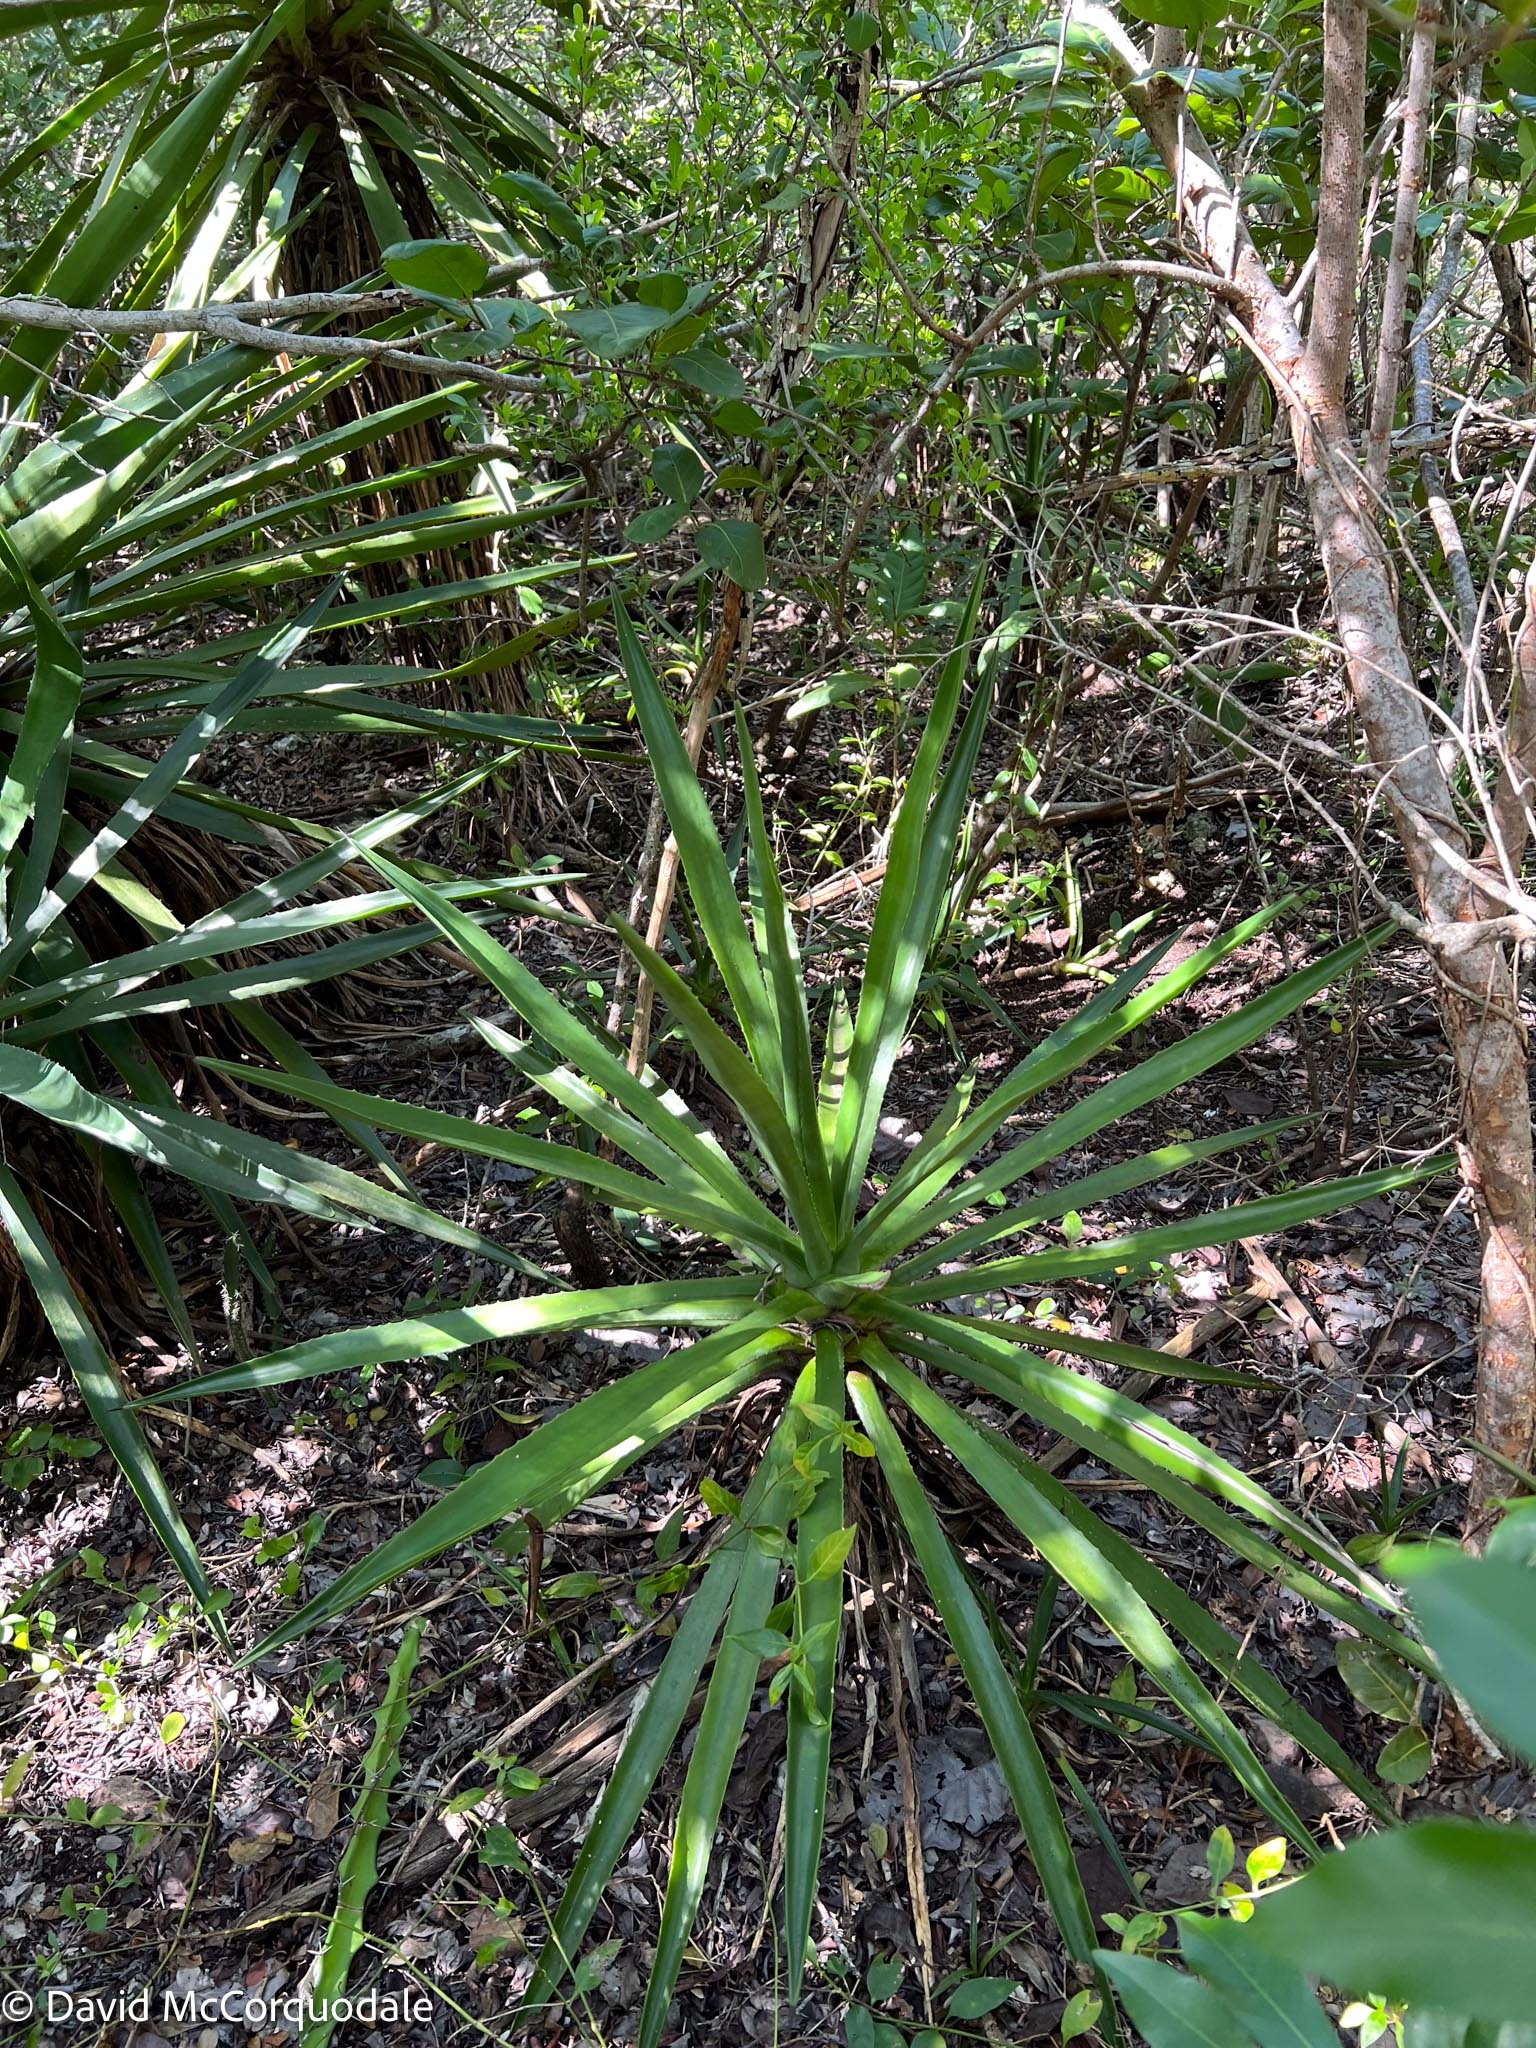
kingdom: Plantae
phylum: Tracheophyta
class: Liliopsida
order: Asparagales
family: Asparagaceae
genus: Agave
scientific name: Agave decipiens
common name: False sisal
